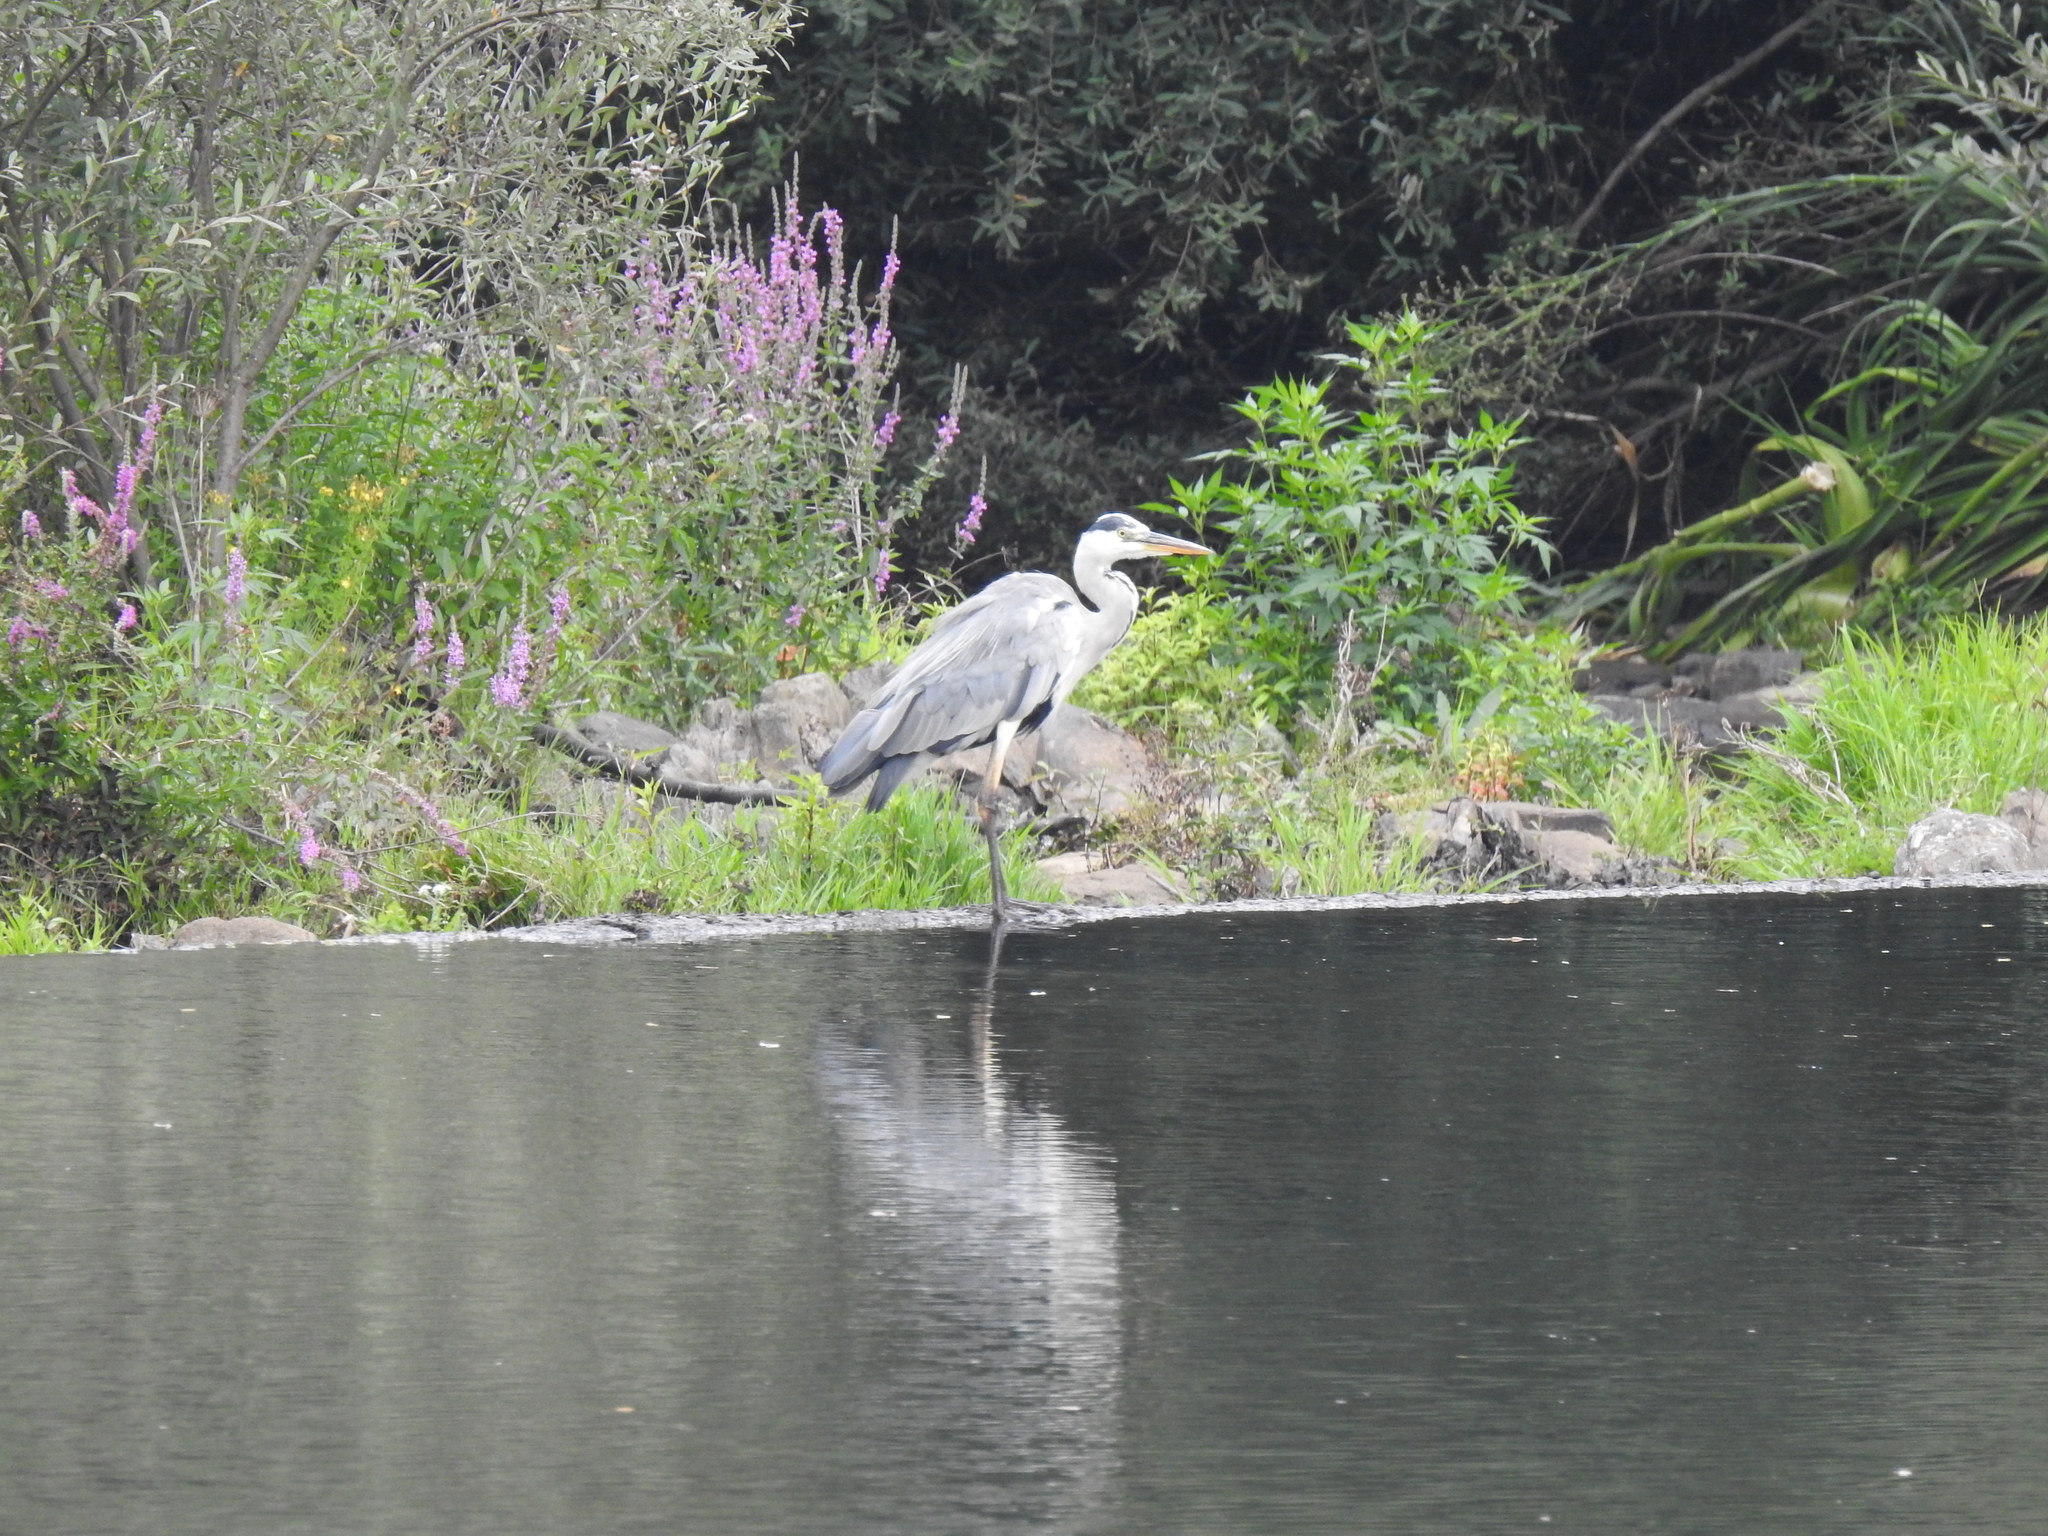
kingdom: Animalia
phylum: Chordata
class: Aves
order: Pelecaniformes
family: Ardeidae
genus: Ardea
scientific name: Ardea cinerea
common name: Grey heron
